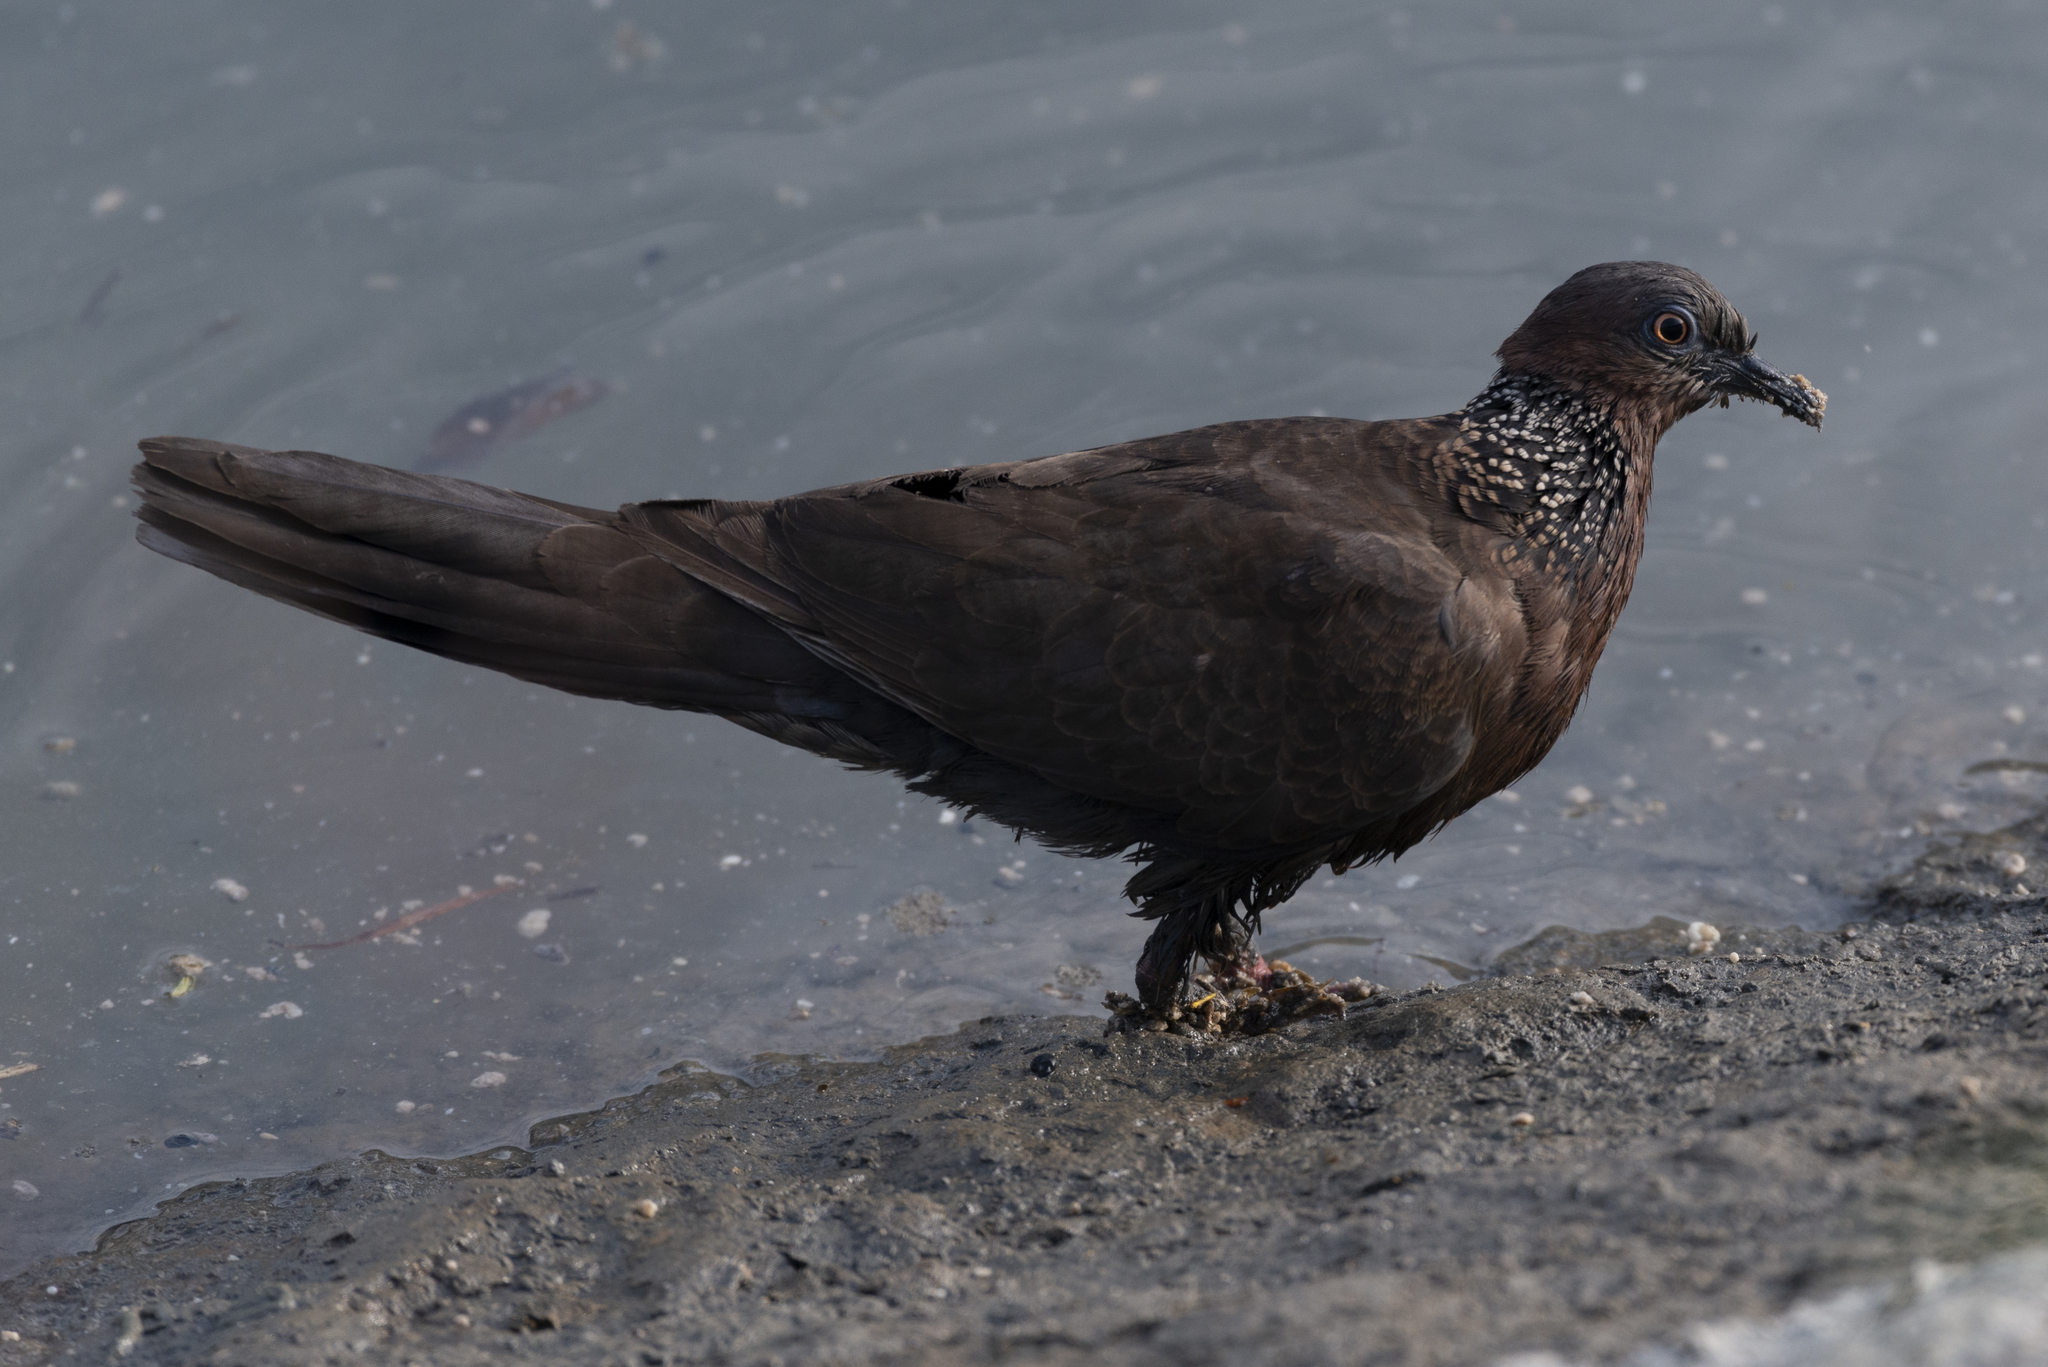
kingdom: Animalia
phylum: Chordata
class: Aves
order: Columbiformes
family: Columbidae
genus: Spilopelia
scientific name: Spilopelia chinensis
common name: Spotted dove
